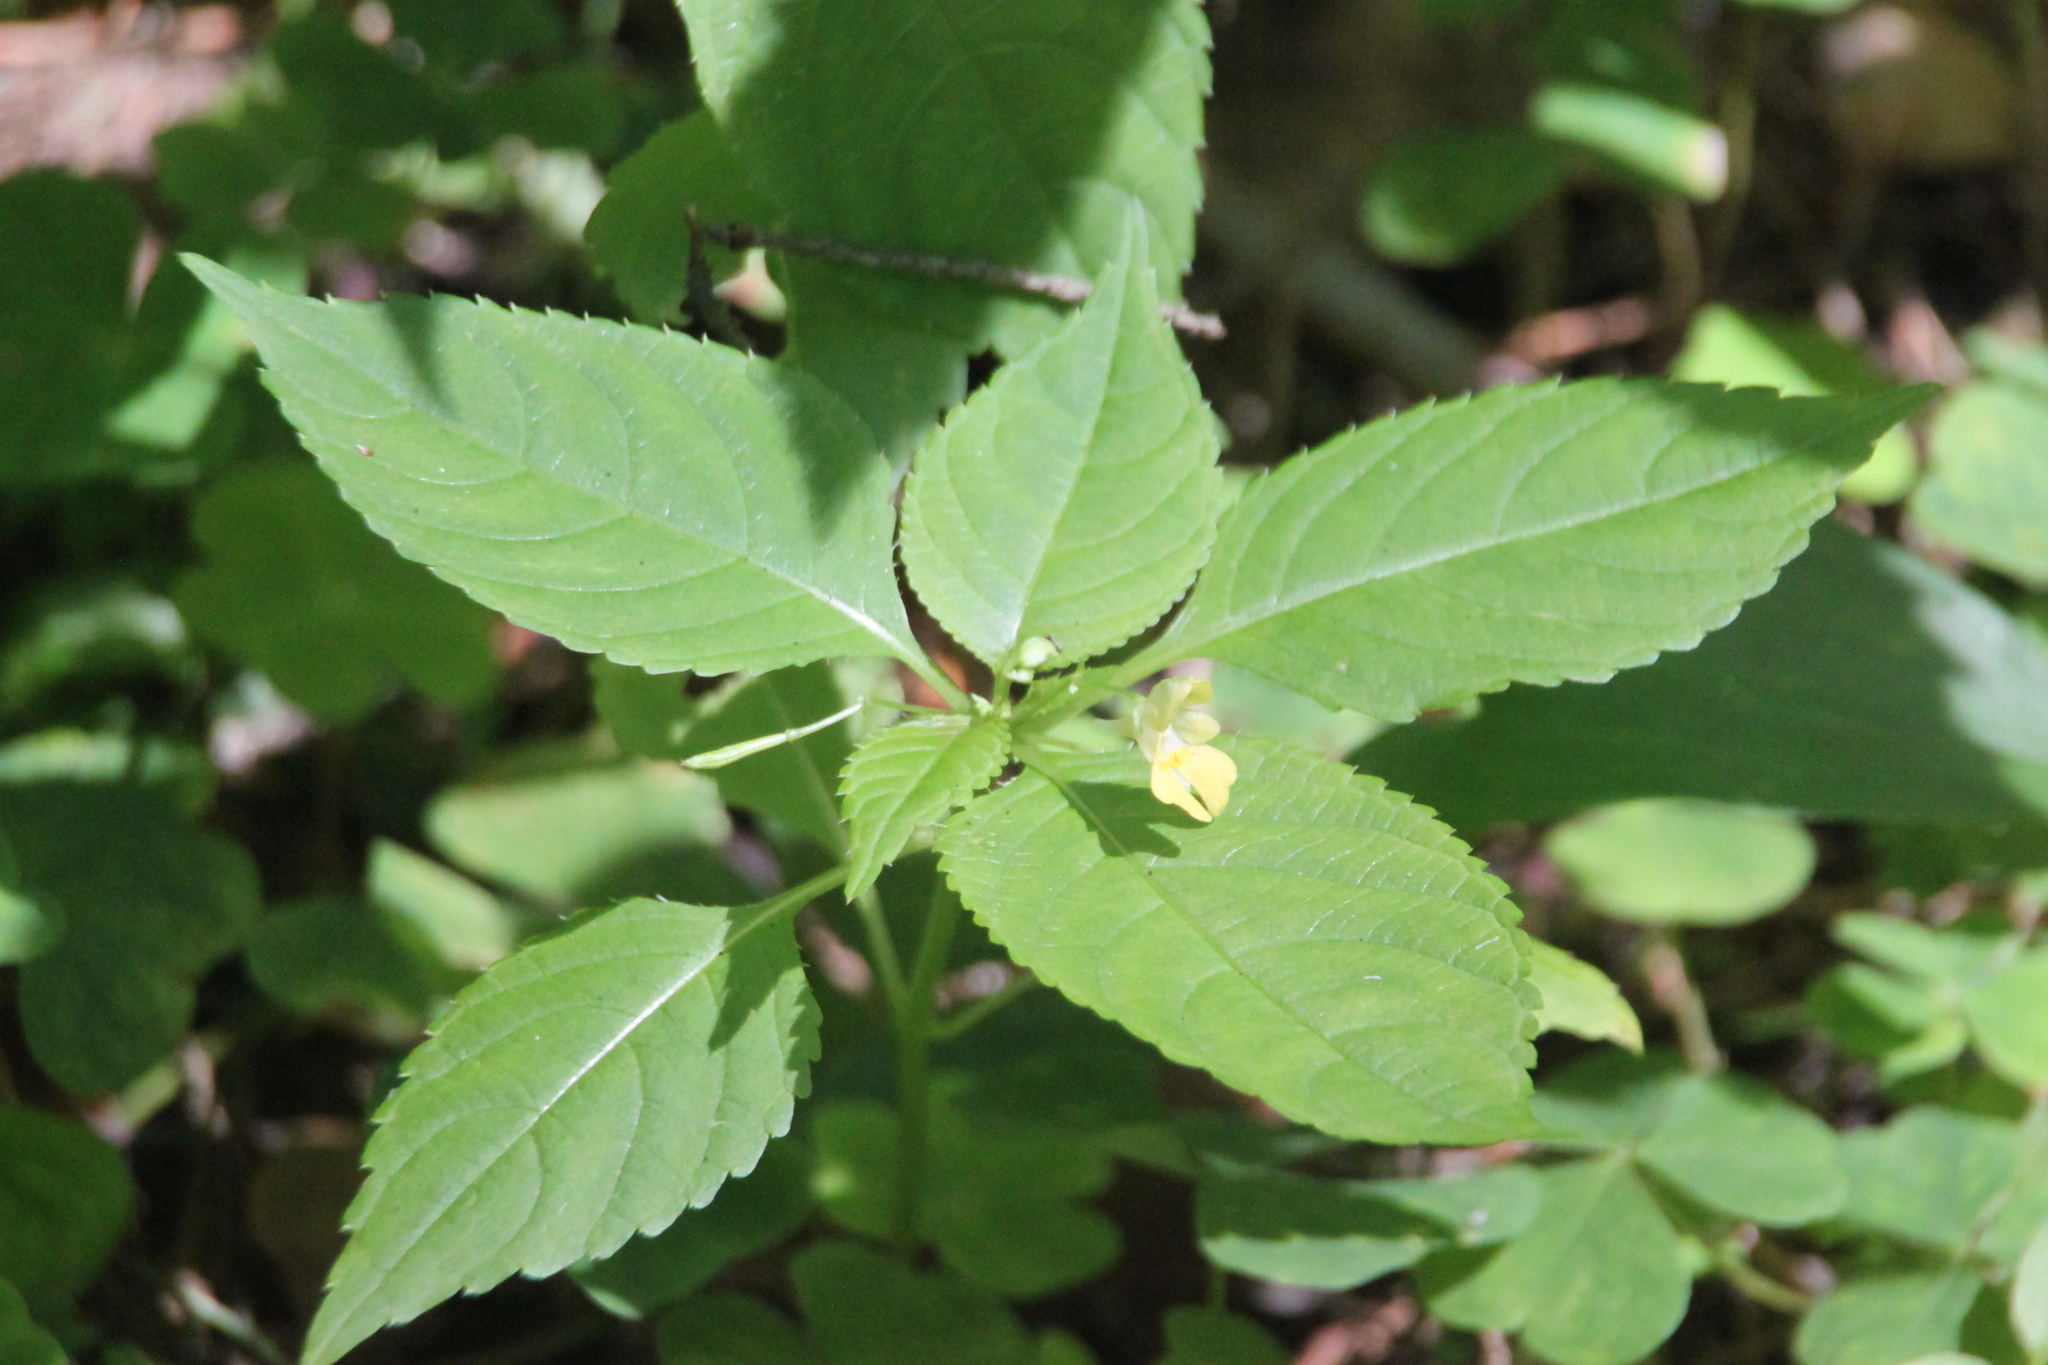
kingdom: Plantae
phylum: Tracheophyta
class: Magnoliopsida
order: Ericales
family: Balsaminaceae
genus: Impatiens
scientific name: Impatiens parviflora
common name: Small balsam
